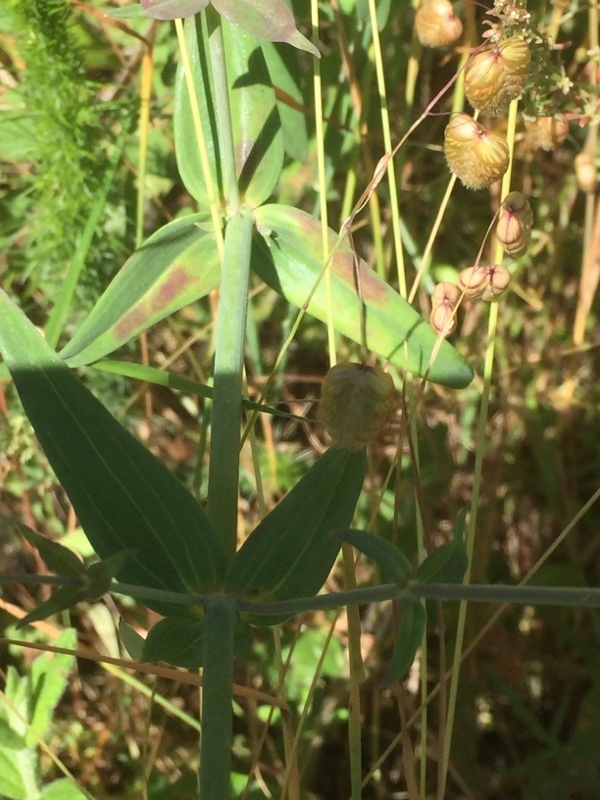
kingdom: Plantae
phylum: Tracheophyta
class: Magnoliopsida
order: Lamiales
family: Plantaginaceae
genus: Linaria
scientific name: Linaria triornithophora
